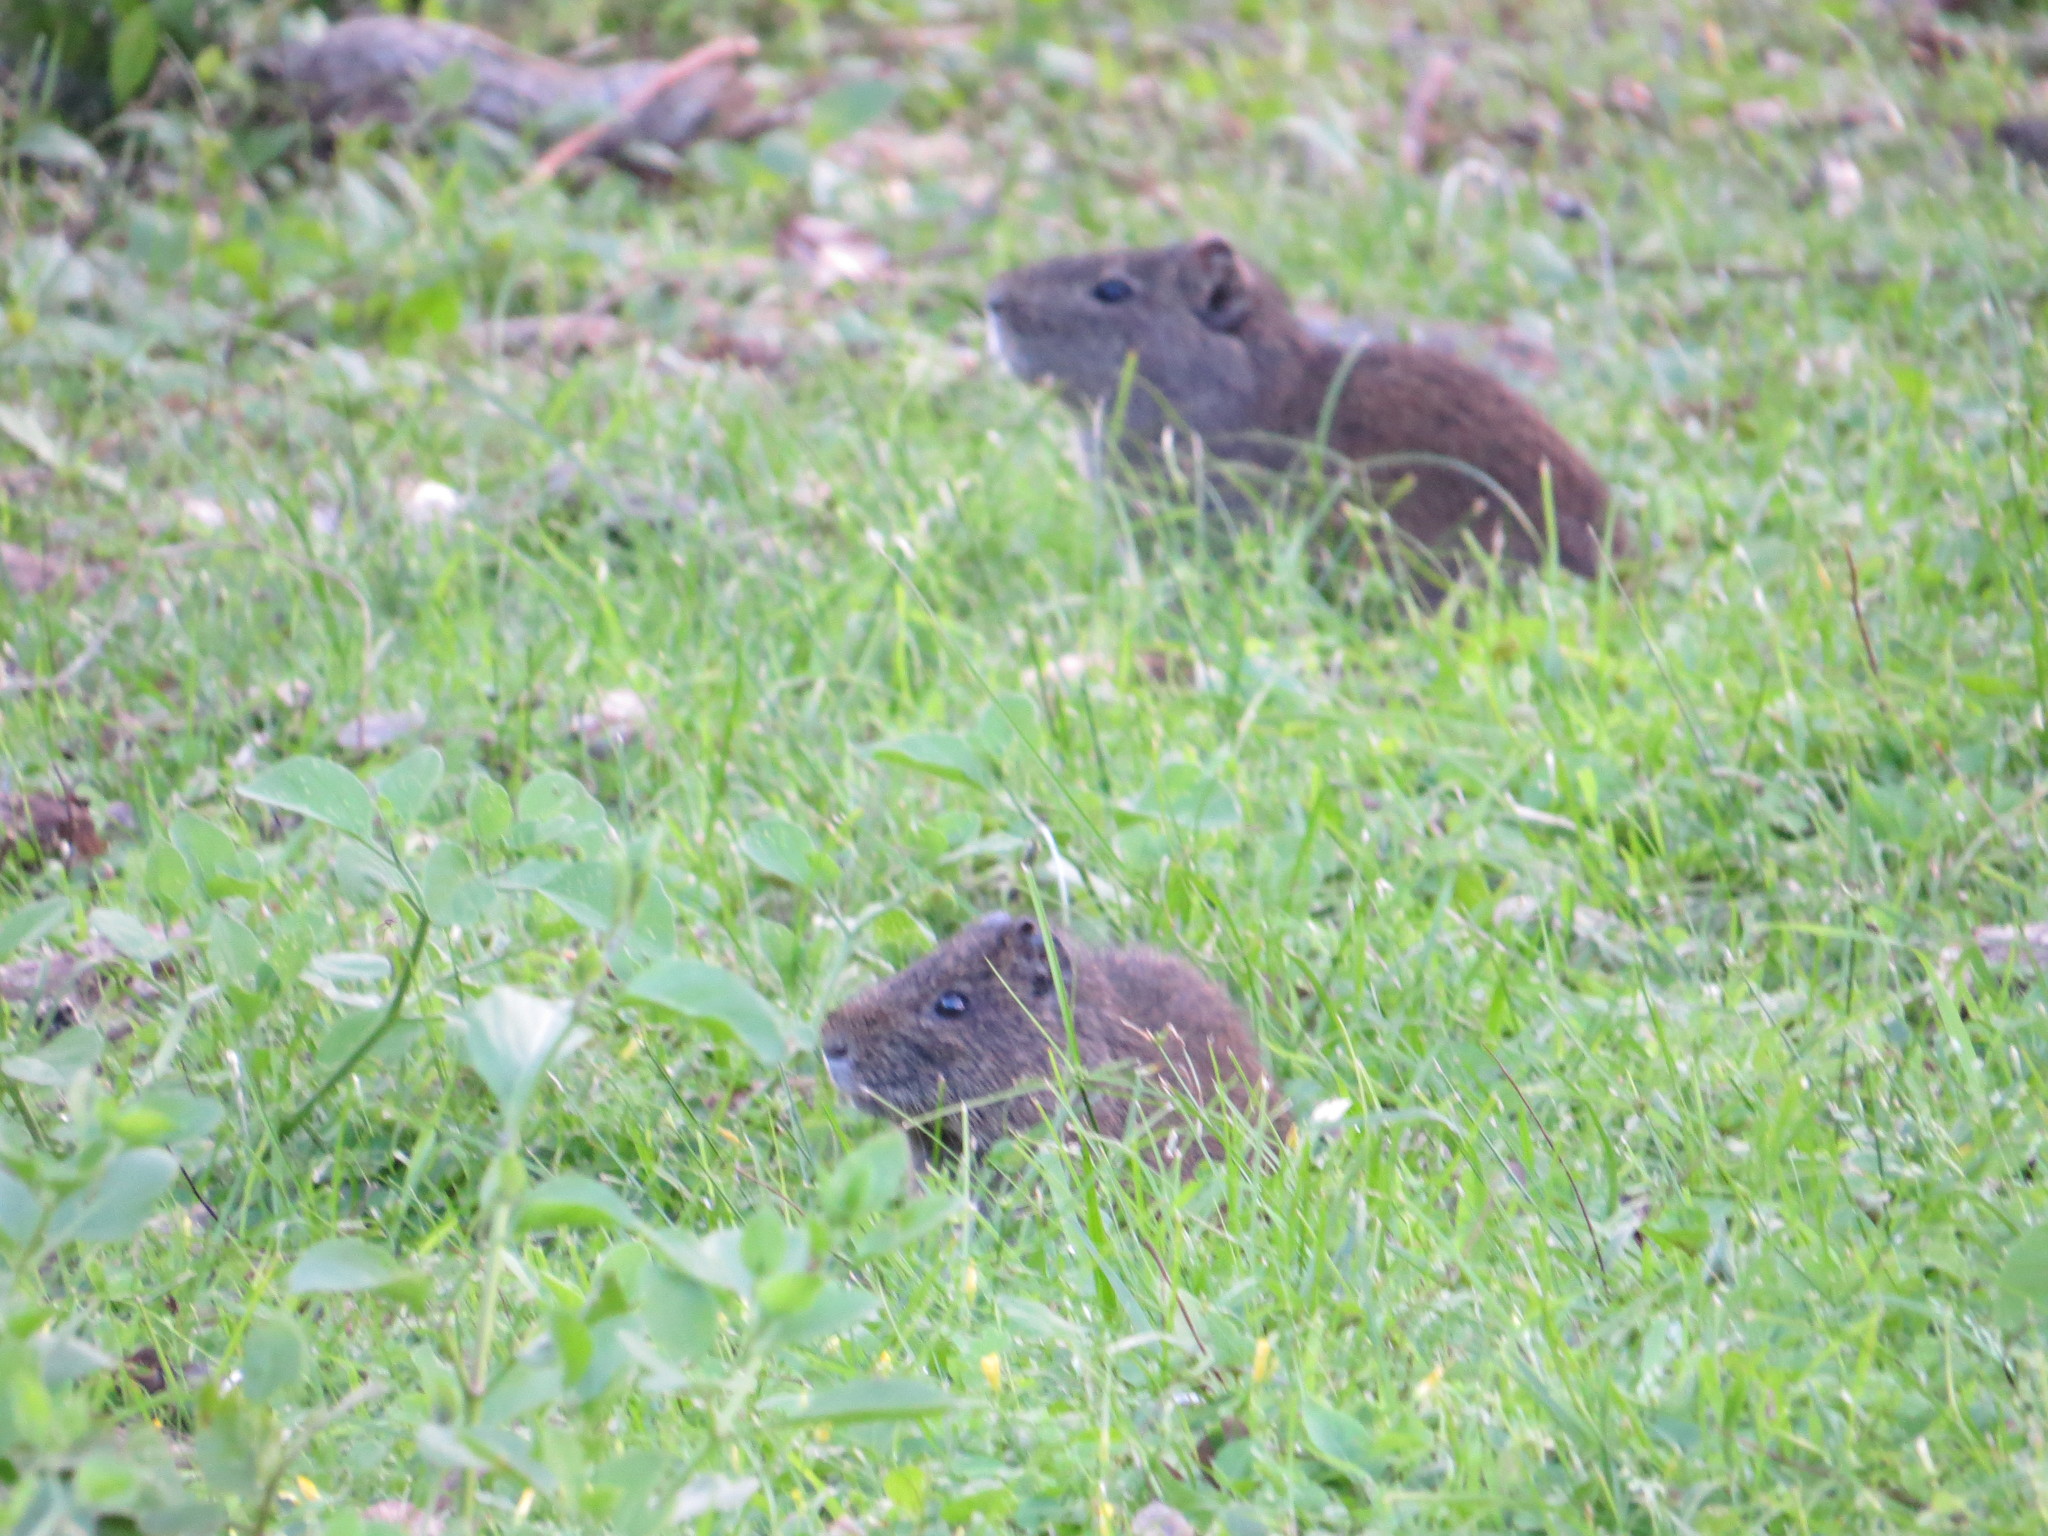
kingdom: Animalia
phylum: Chordata
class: Mammalia
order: Rodentia
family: Caviidae
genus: Cavia
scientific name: Cavia aperea
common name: Brazilian guinea pig
